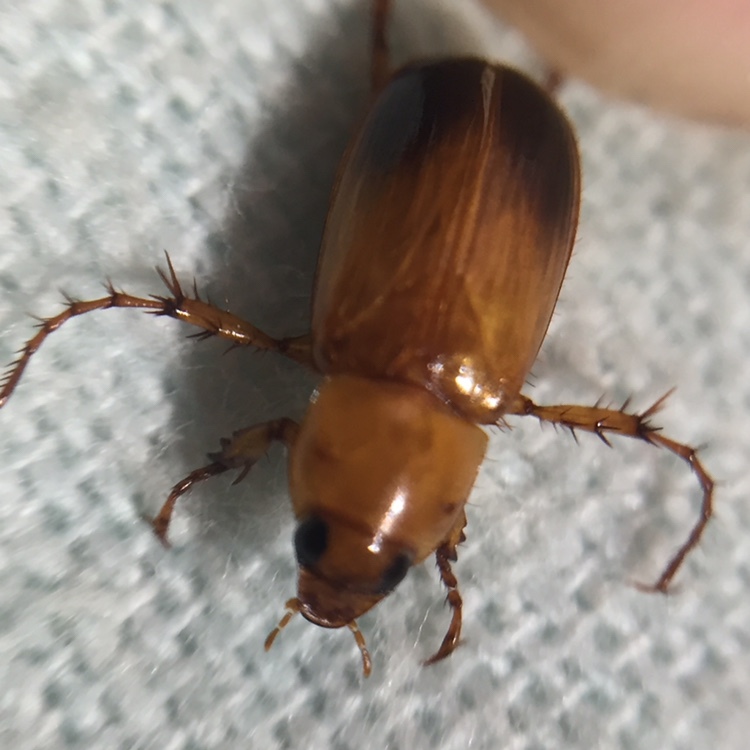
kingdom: Animalia
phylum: Arthropoda
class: Insecta
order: Coleoptera
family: Scarabaeidae
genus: Phyllotocus
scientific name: Phyllotocus macleayi
